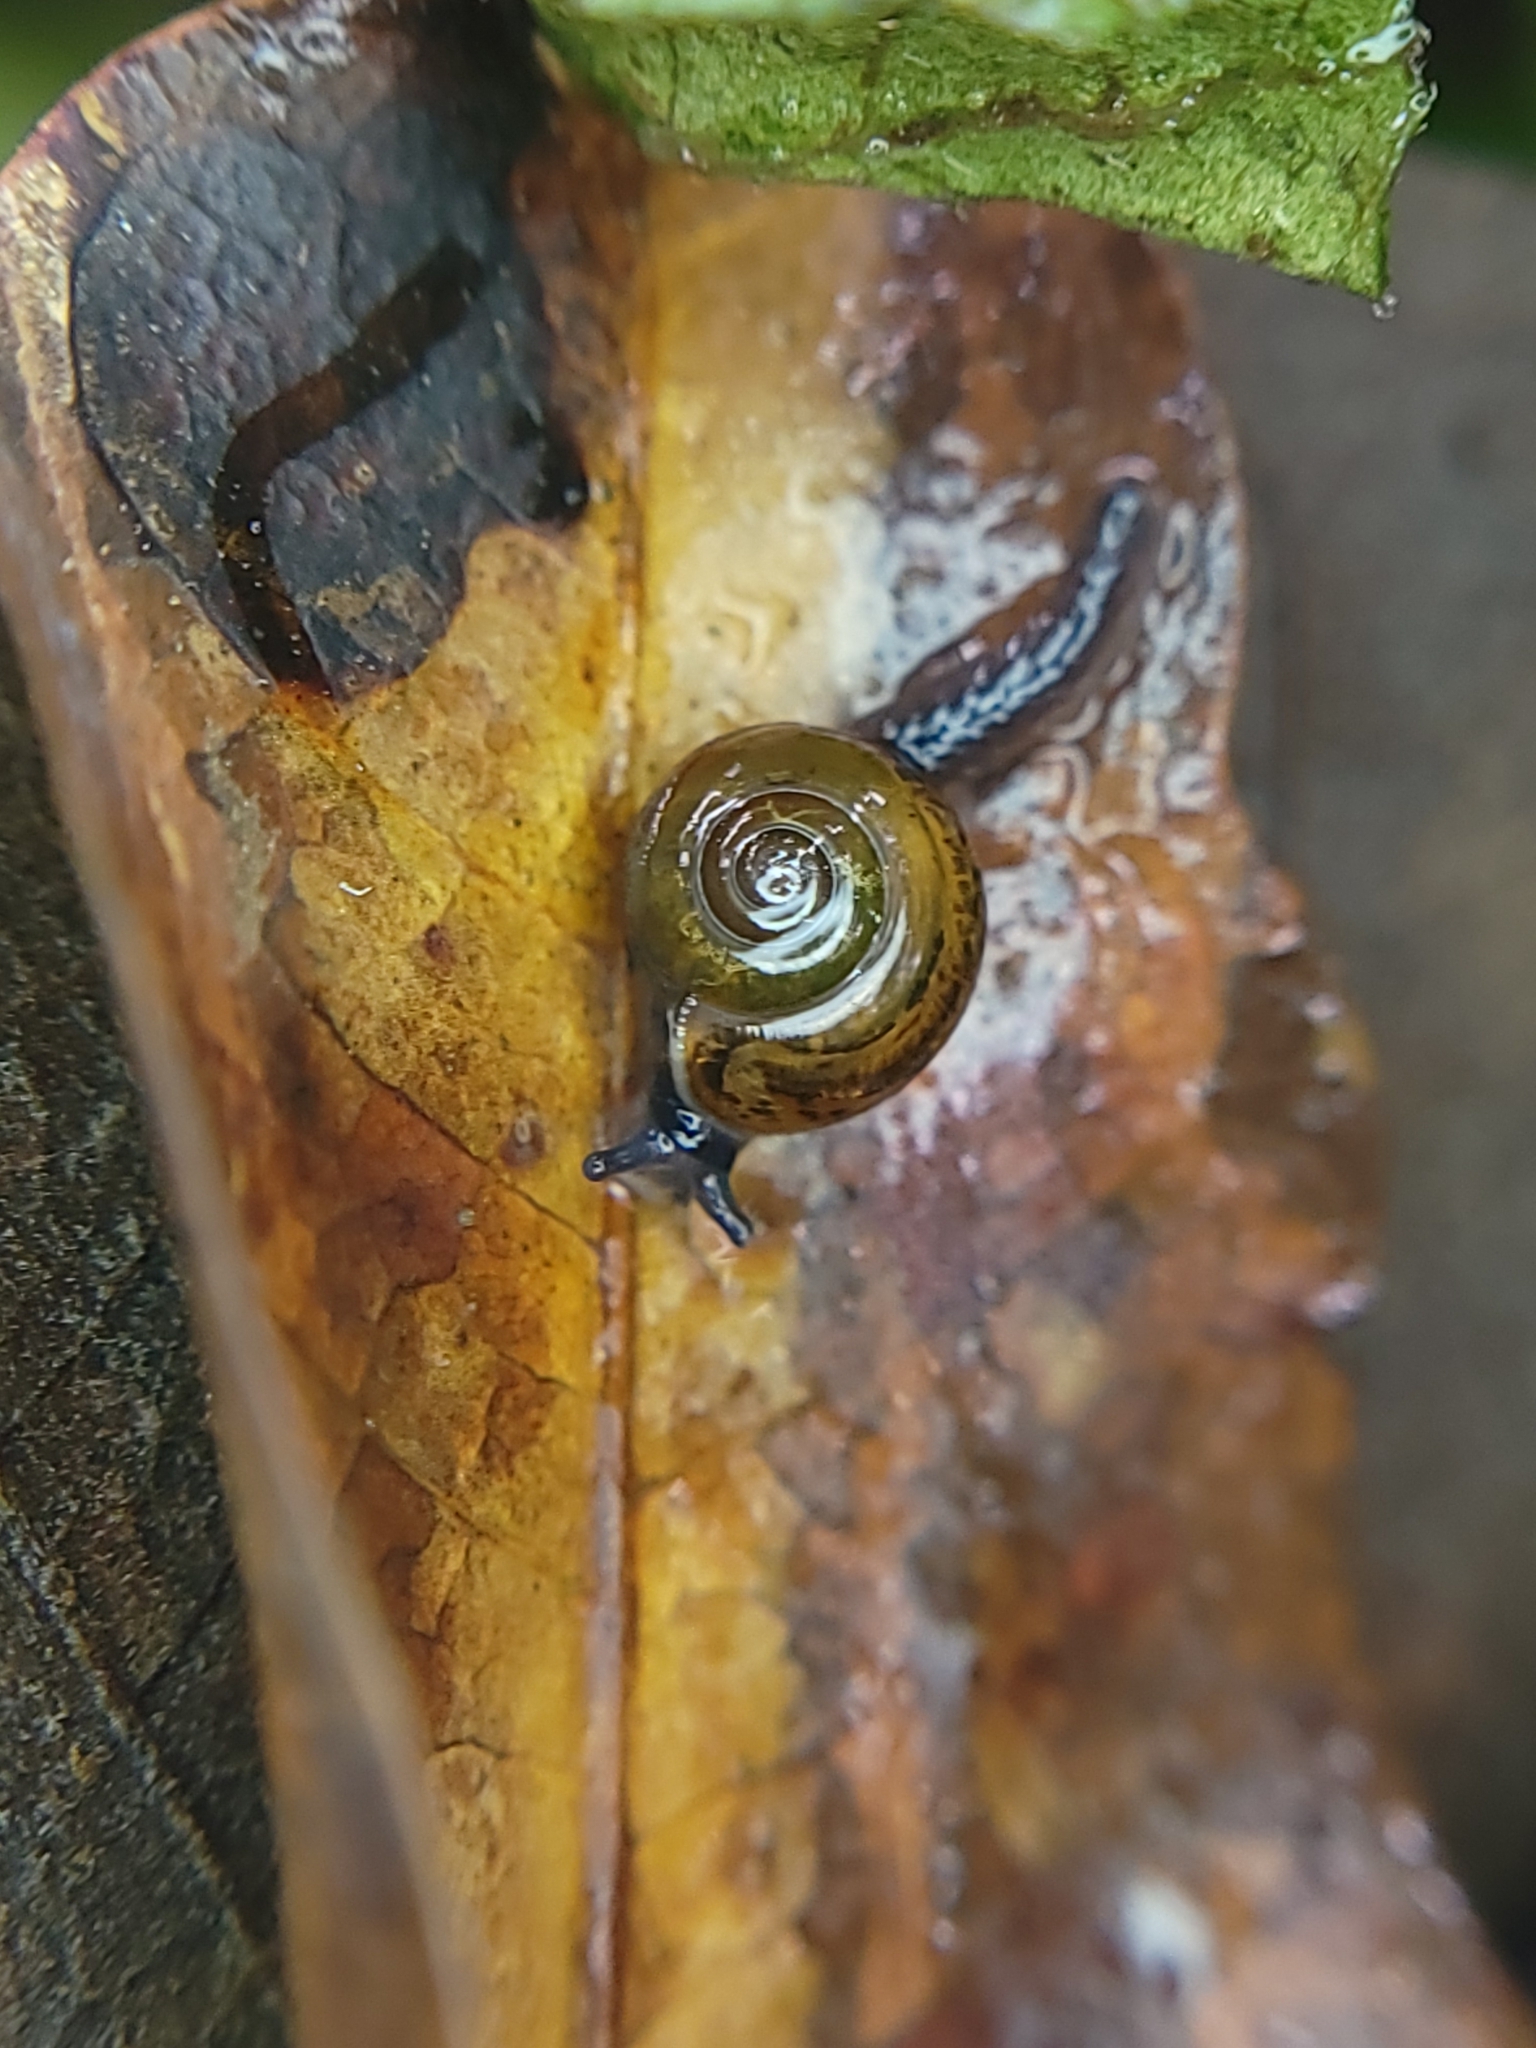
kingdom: Animalia
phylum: Mollusca
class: Gastropoda
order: Stylommatophora
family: Helicarionidae
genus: Ovachlamys
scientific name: Ovachlamys fulgens
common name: Jumping snail
